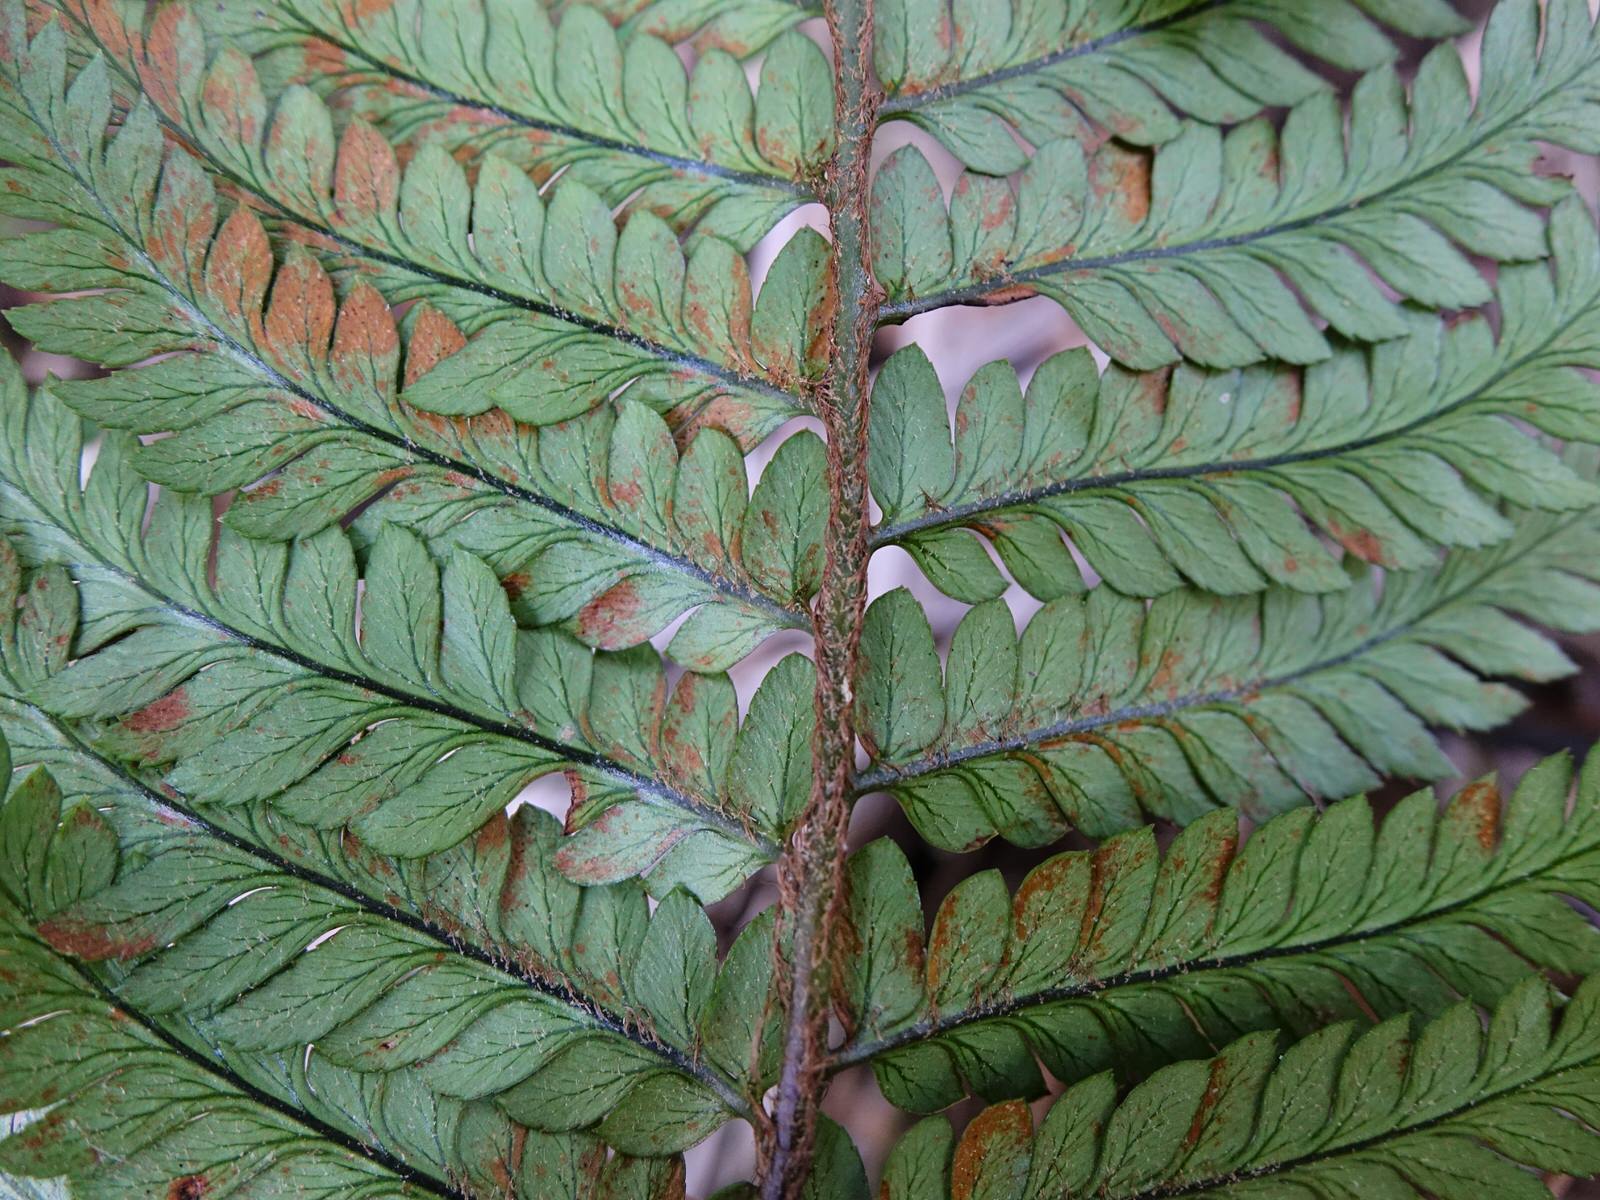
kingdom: Plantae
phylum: Tracheophyta
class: Polypodiopsida
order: Polypodiales
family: Dryopteridaceae
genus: Polystichum
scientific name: Polystichum wawranum
